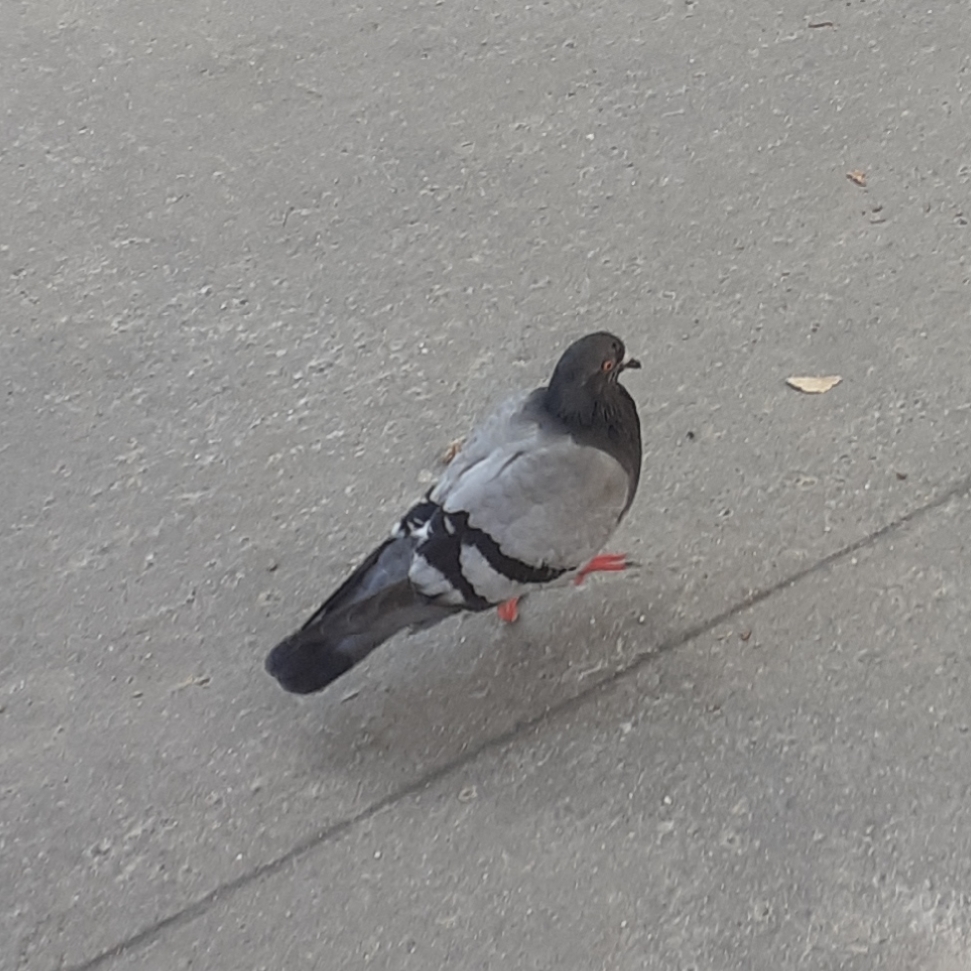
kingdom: Animalia
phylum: Chordata
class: Aves
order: Columbiformes
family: Columbidae
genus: Columba
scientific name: Columba livia
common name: Rock pigeon
